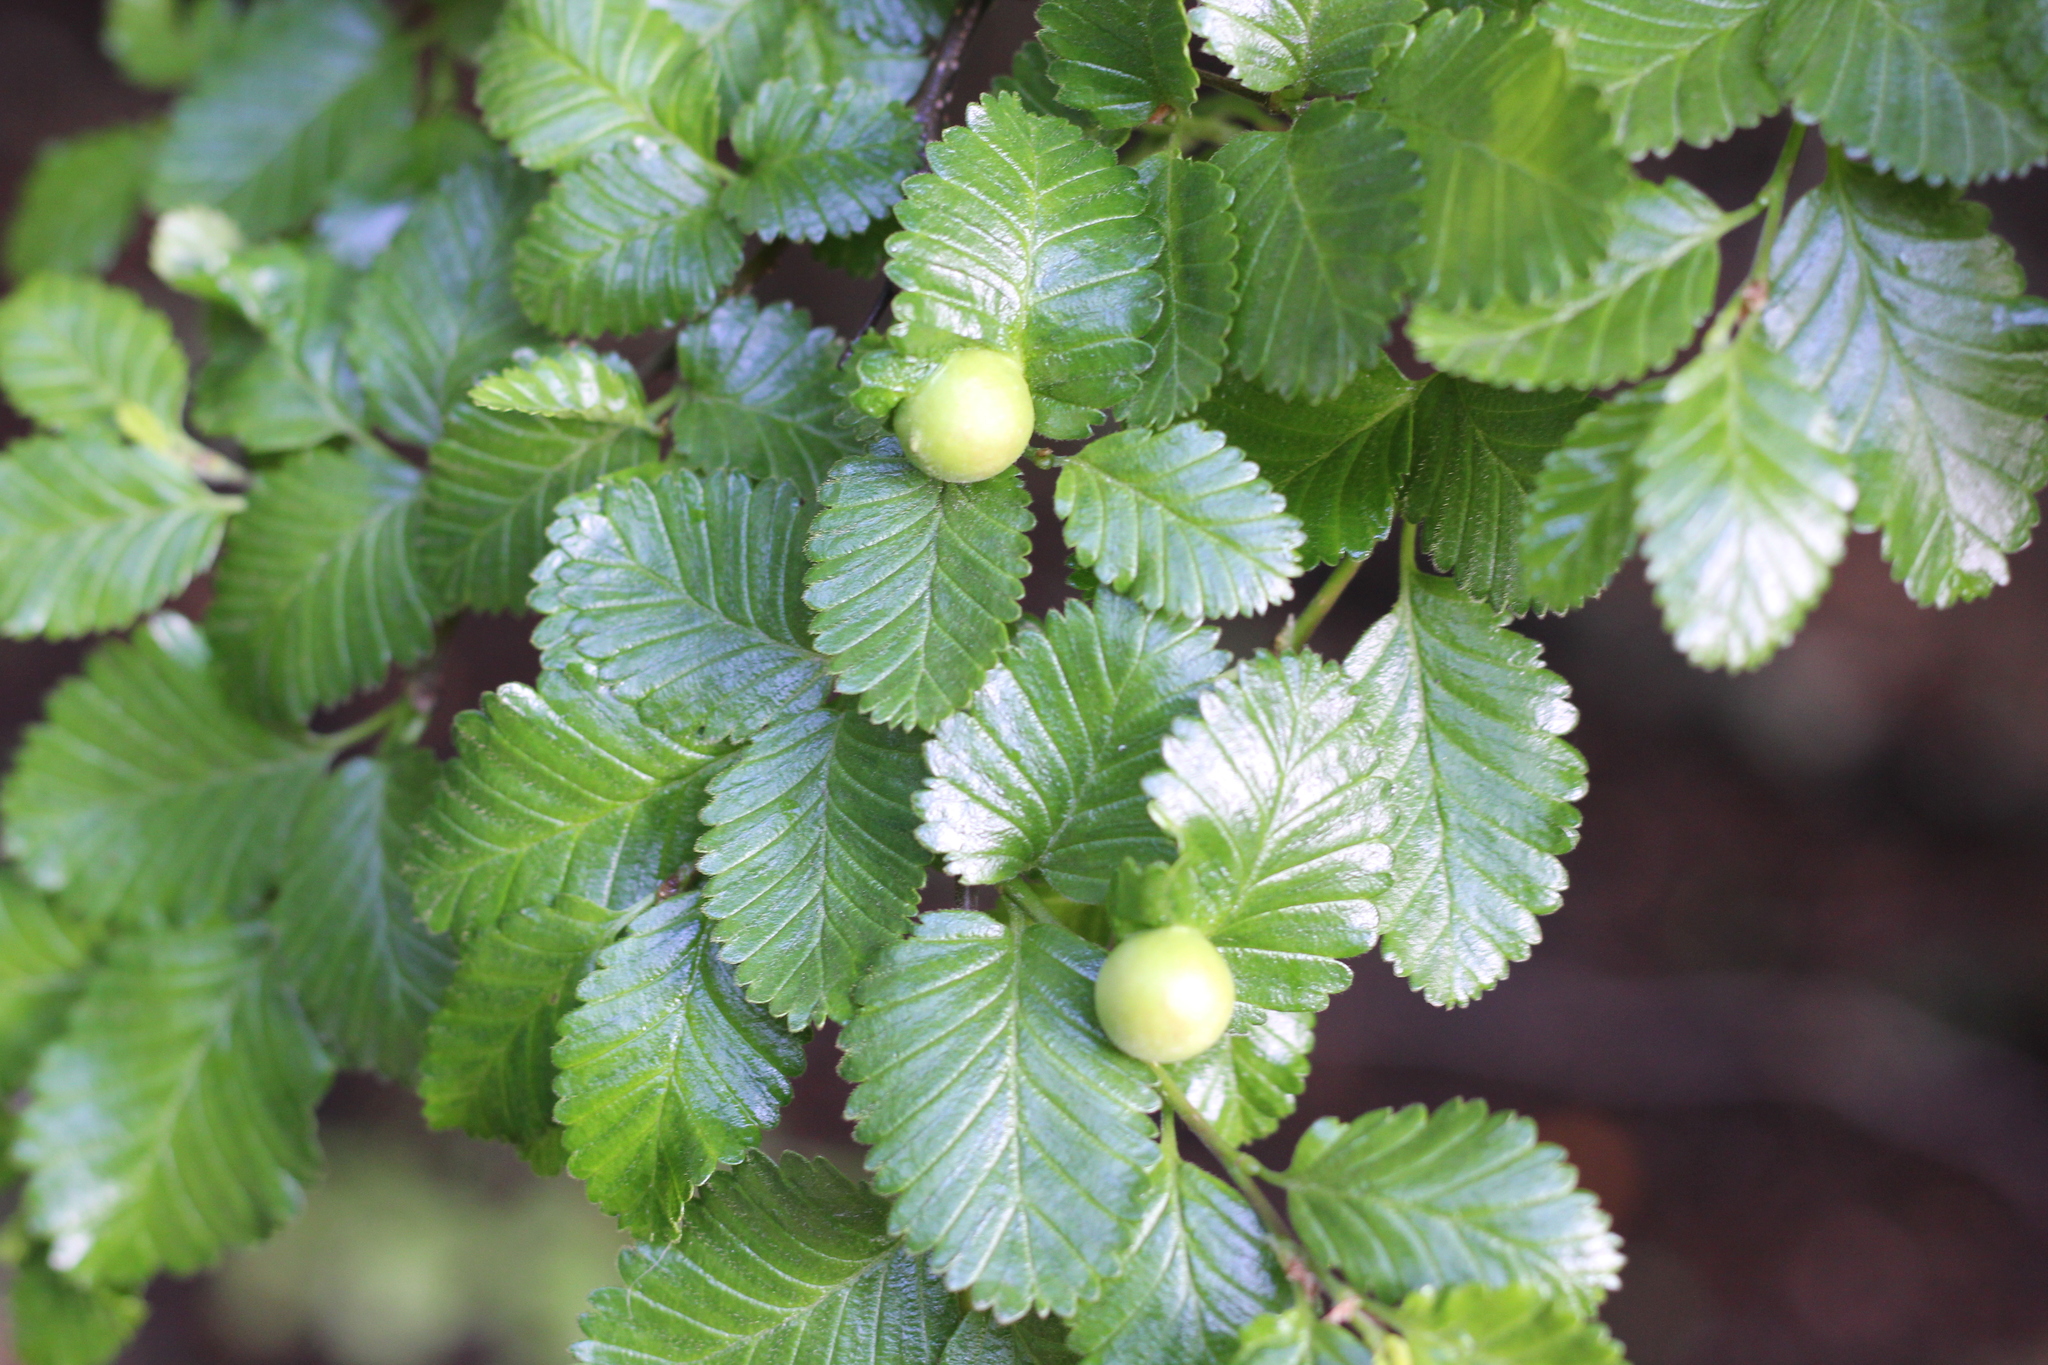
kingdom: Plantae
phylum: Tracheophyta
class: Magnoliopsida
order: Fagales
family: Nothofagaceae
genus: Nothofagus
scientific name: Nothofagus pumilio
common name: Lenga beech
